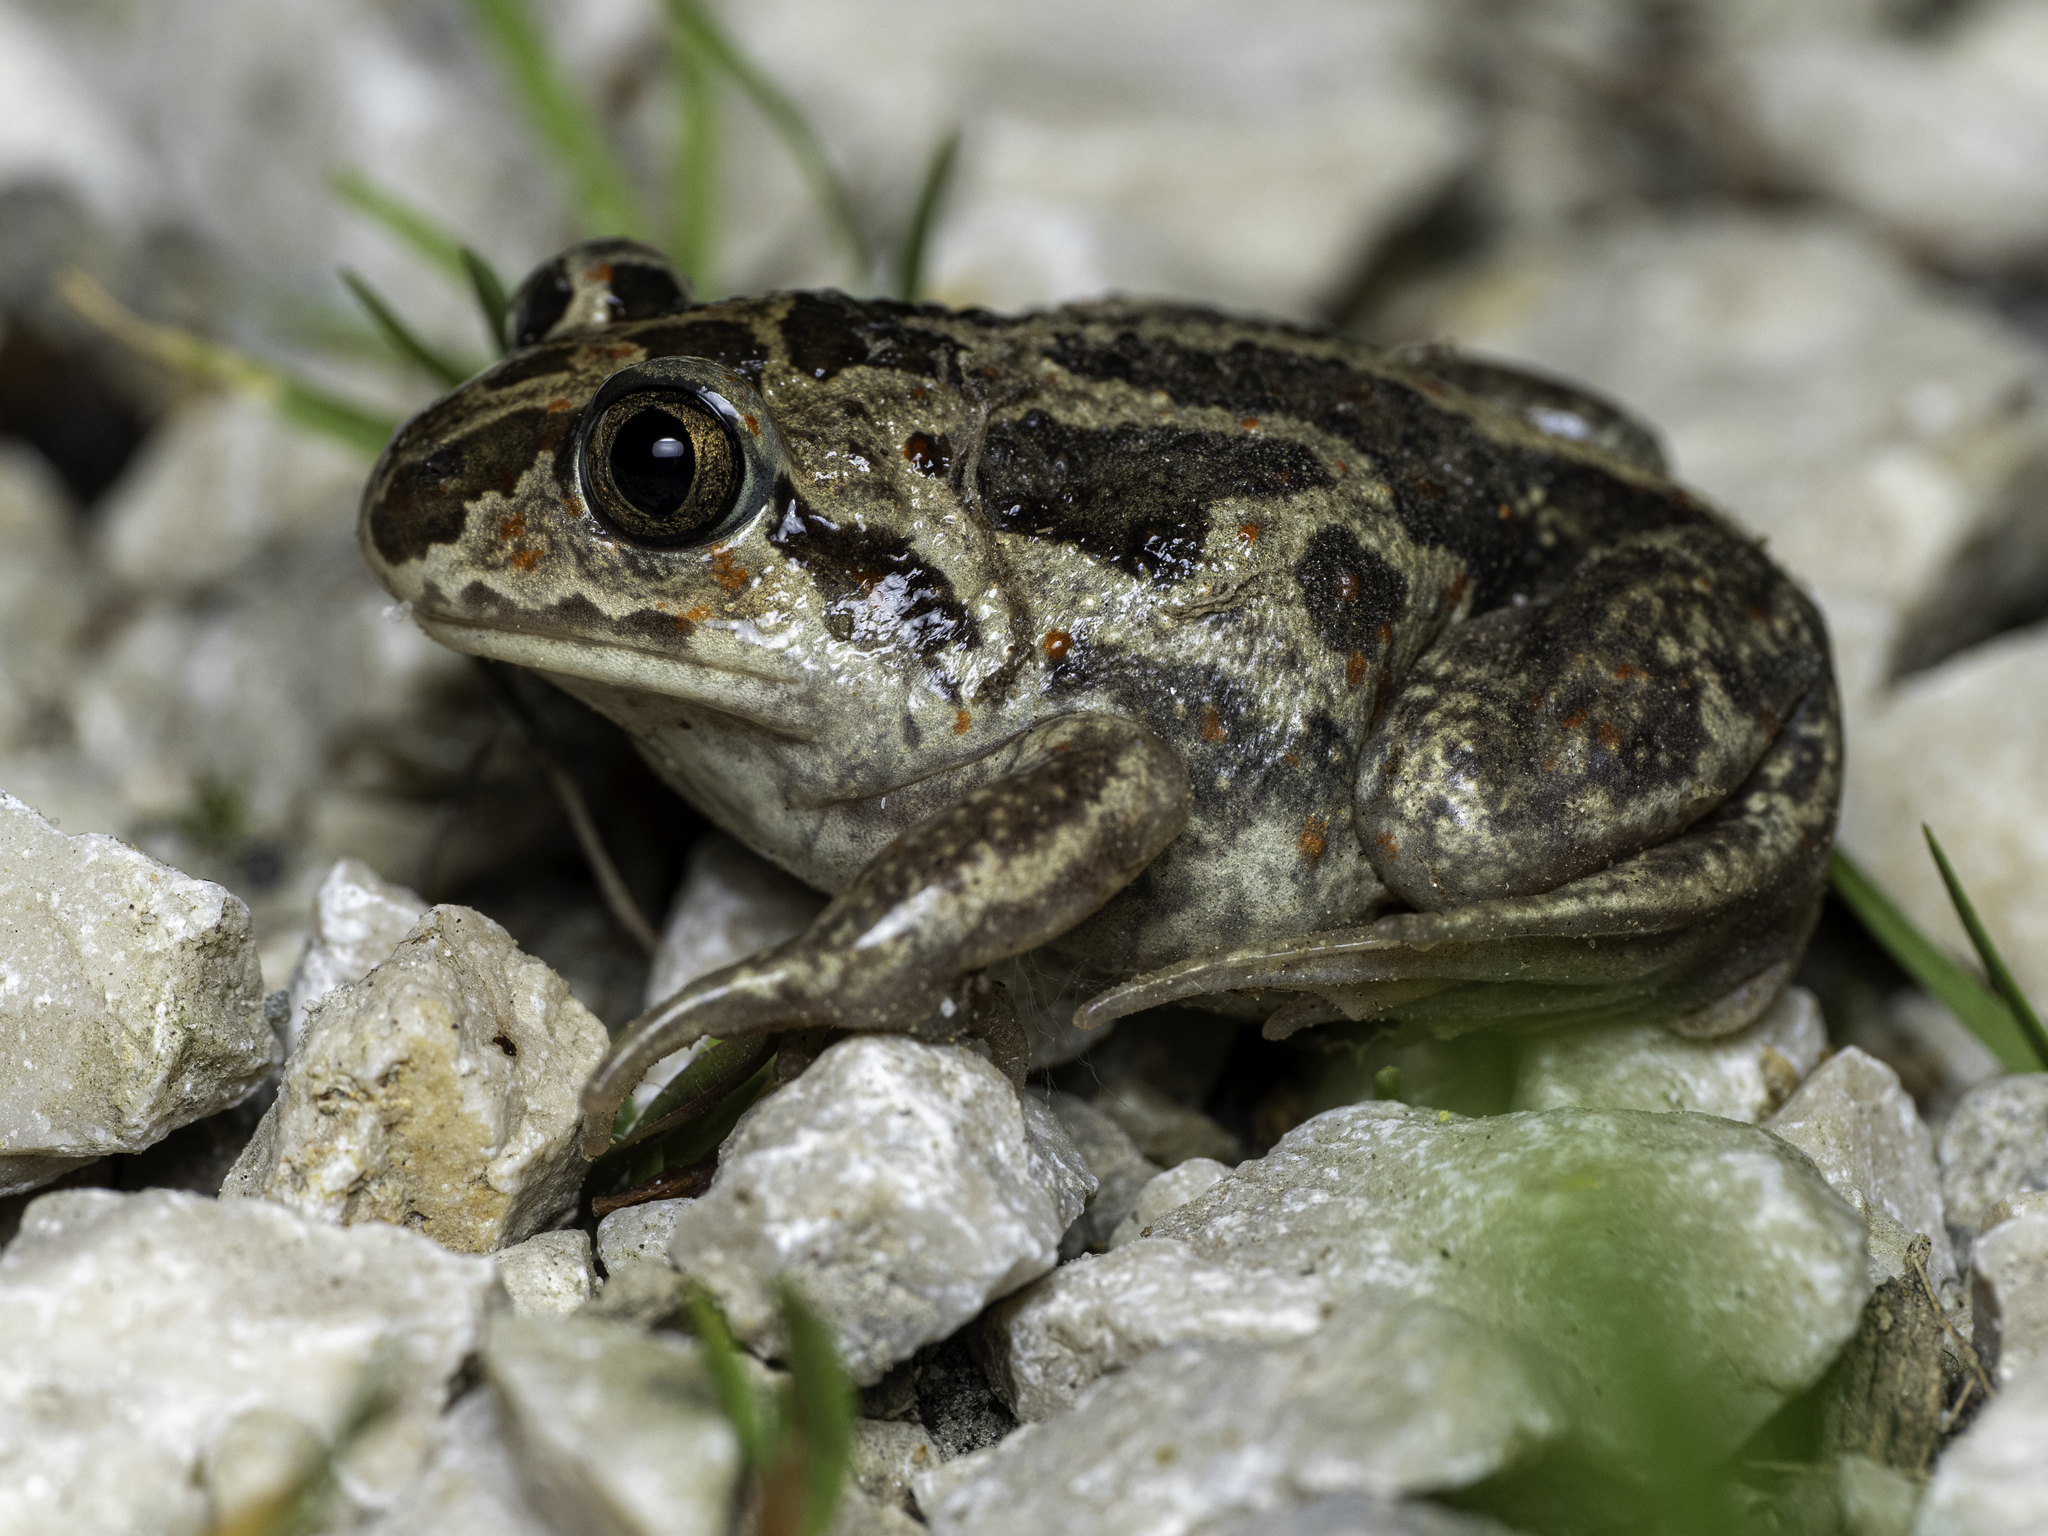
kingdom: Animalia
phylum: Chordata
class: Amphibia
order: Anura
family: Pelobatidae
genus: Pelobates
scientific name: Pelobates fuscus
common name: Common eurasian spadefoot toad
